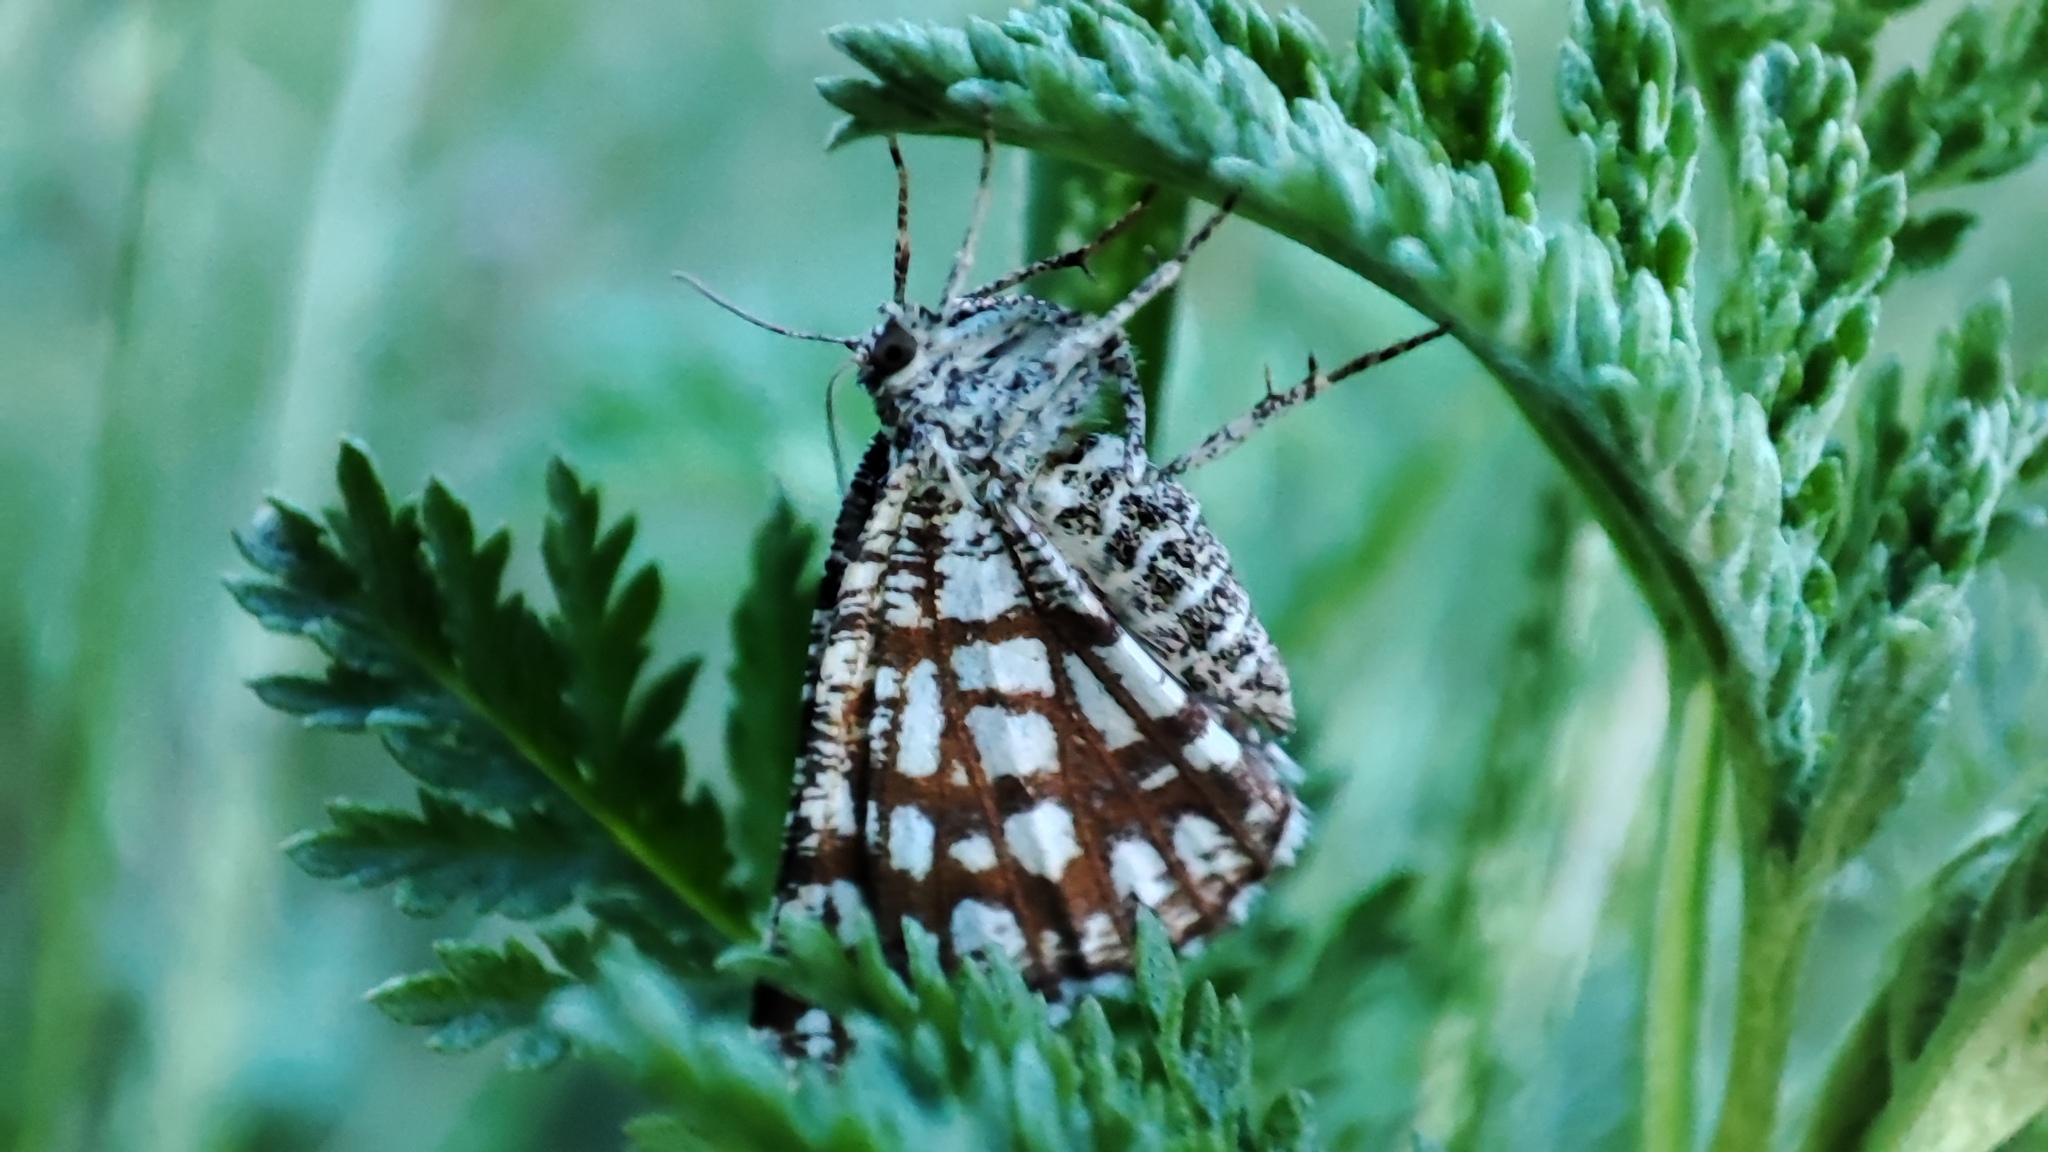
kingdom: Animalia
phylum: Arthropoda
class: Insecta
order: Lepidoptera
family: Geometridae
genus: Chiasmia
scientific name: Chiasmia clathrata
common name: Latticed heath
